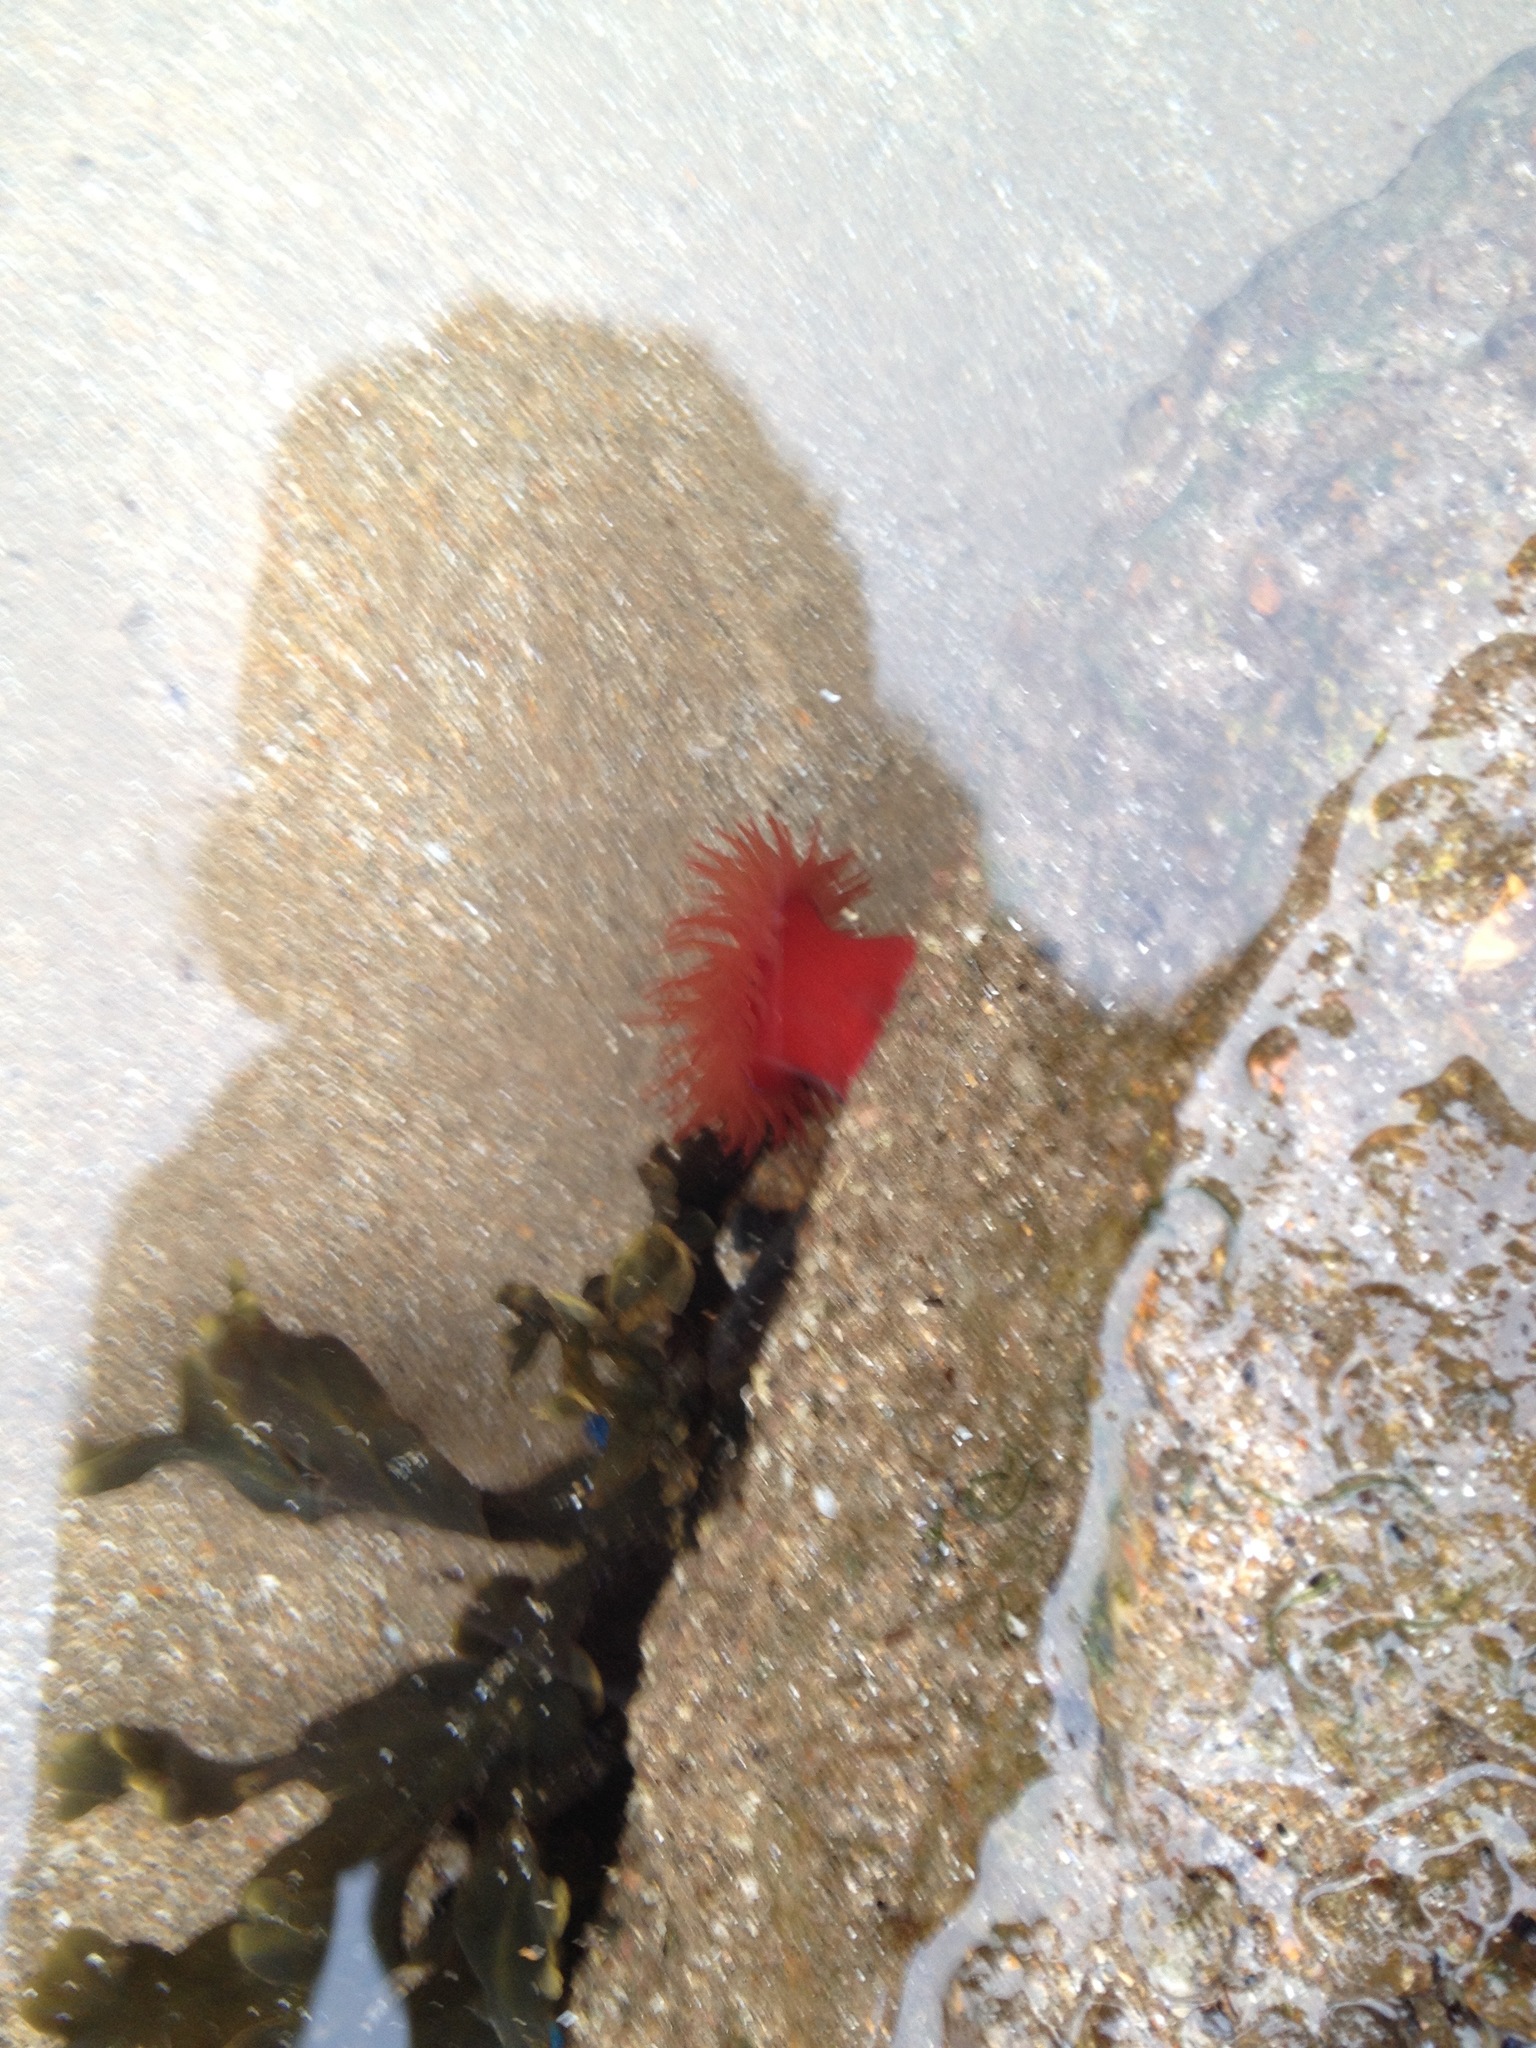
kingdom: Animalia
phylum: Cnidaria
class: Anthozoa
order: Actiniaria
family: Actiniidae
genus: Actinia
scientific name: Actinia equina
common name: Beadlet anemone
